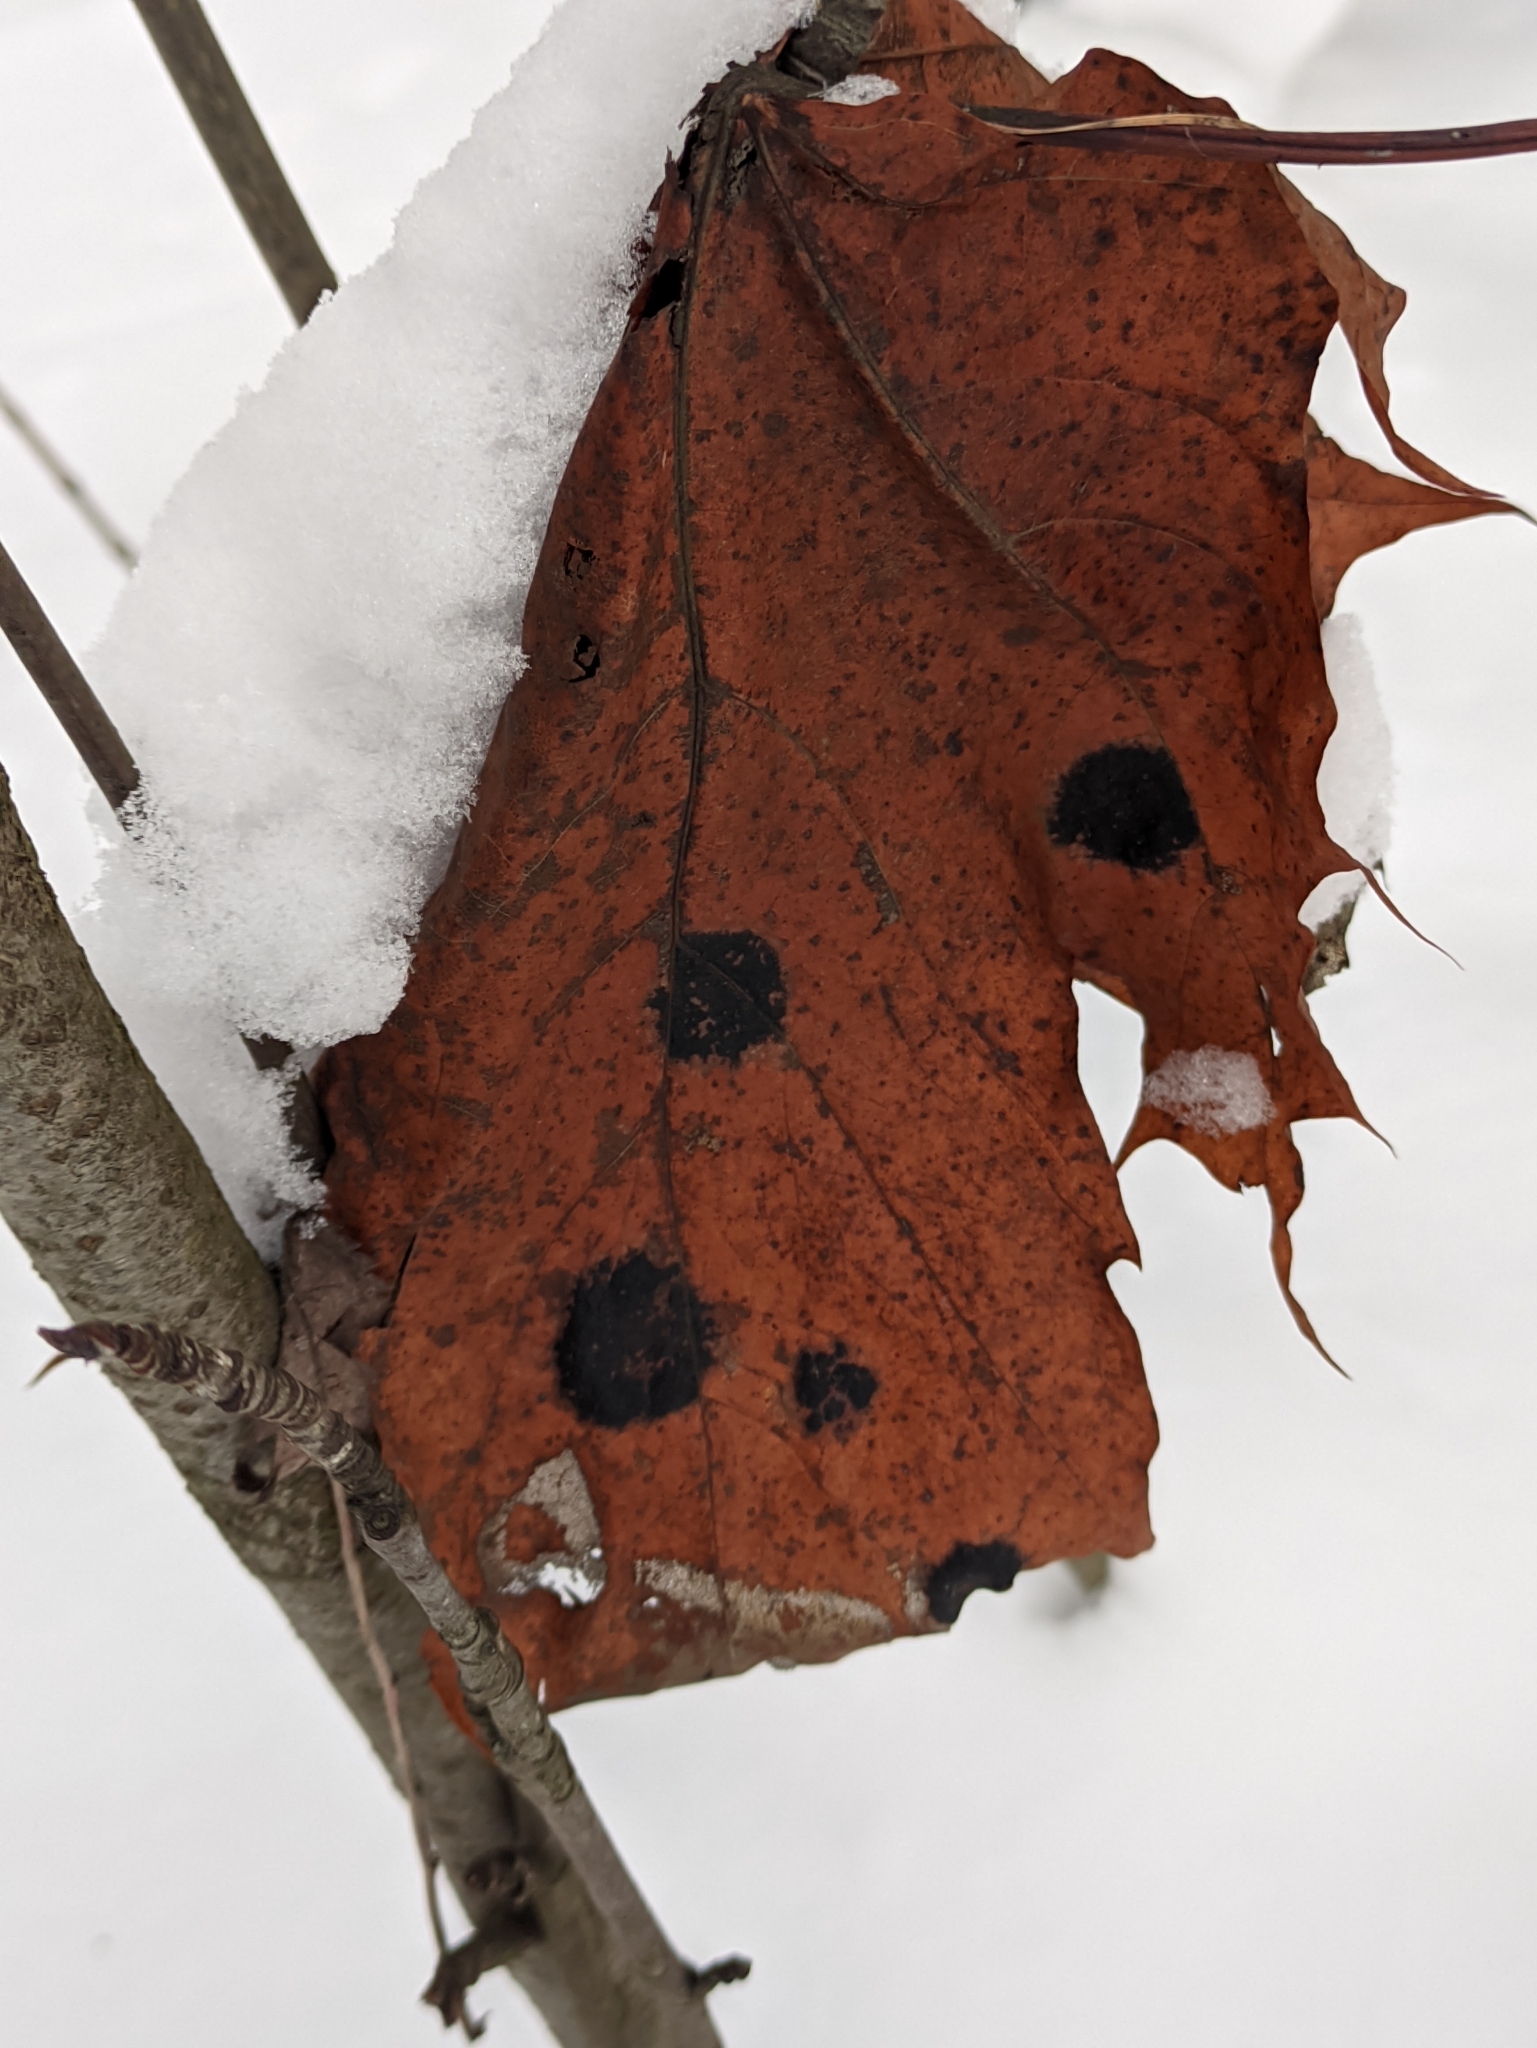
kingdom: Fungi
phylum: Ascomycota
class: Leotiomycetes
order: Rhytismatales
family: Rhytismataceae
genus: Rhytisma
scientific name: Rhytisma acerinum
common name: European tar spot
